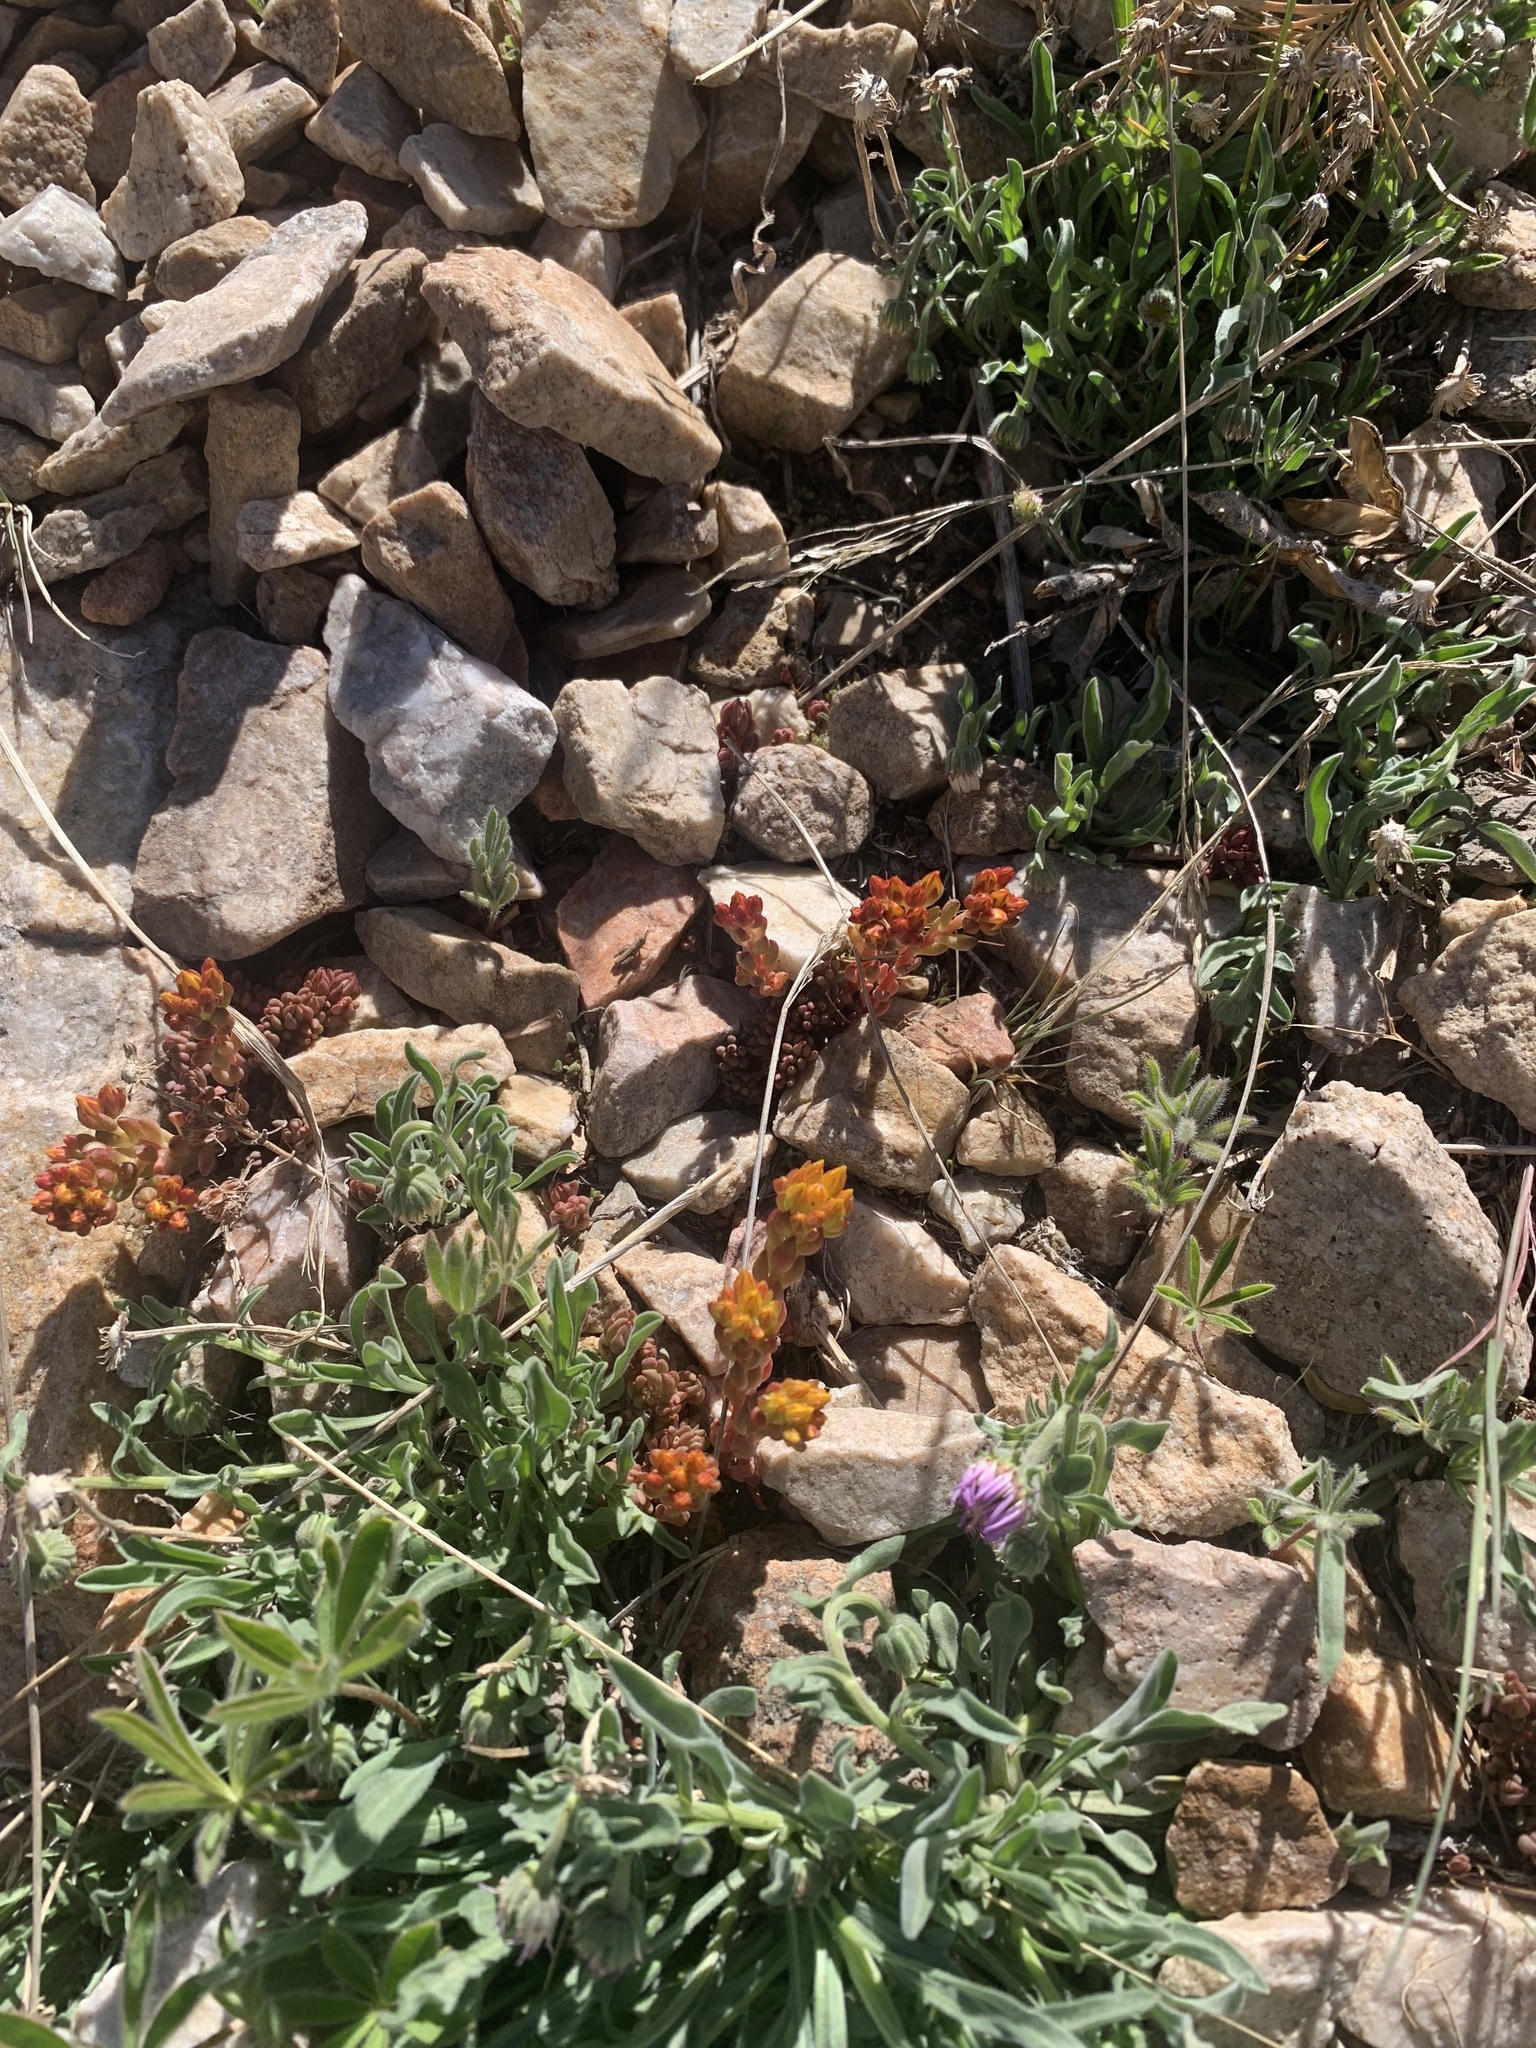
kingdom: Plantae
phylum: Tracheophyta
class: Magnoliopsida
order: Saxifragales
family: Crassulaceae
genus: Sedum
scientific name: Sedum lanceolatum
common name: Common stonecrop
